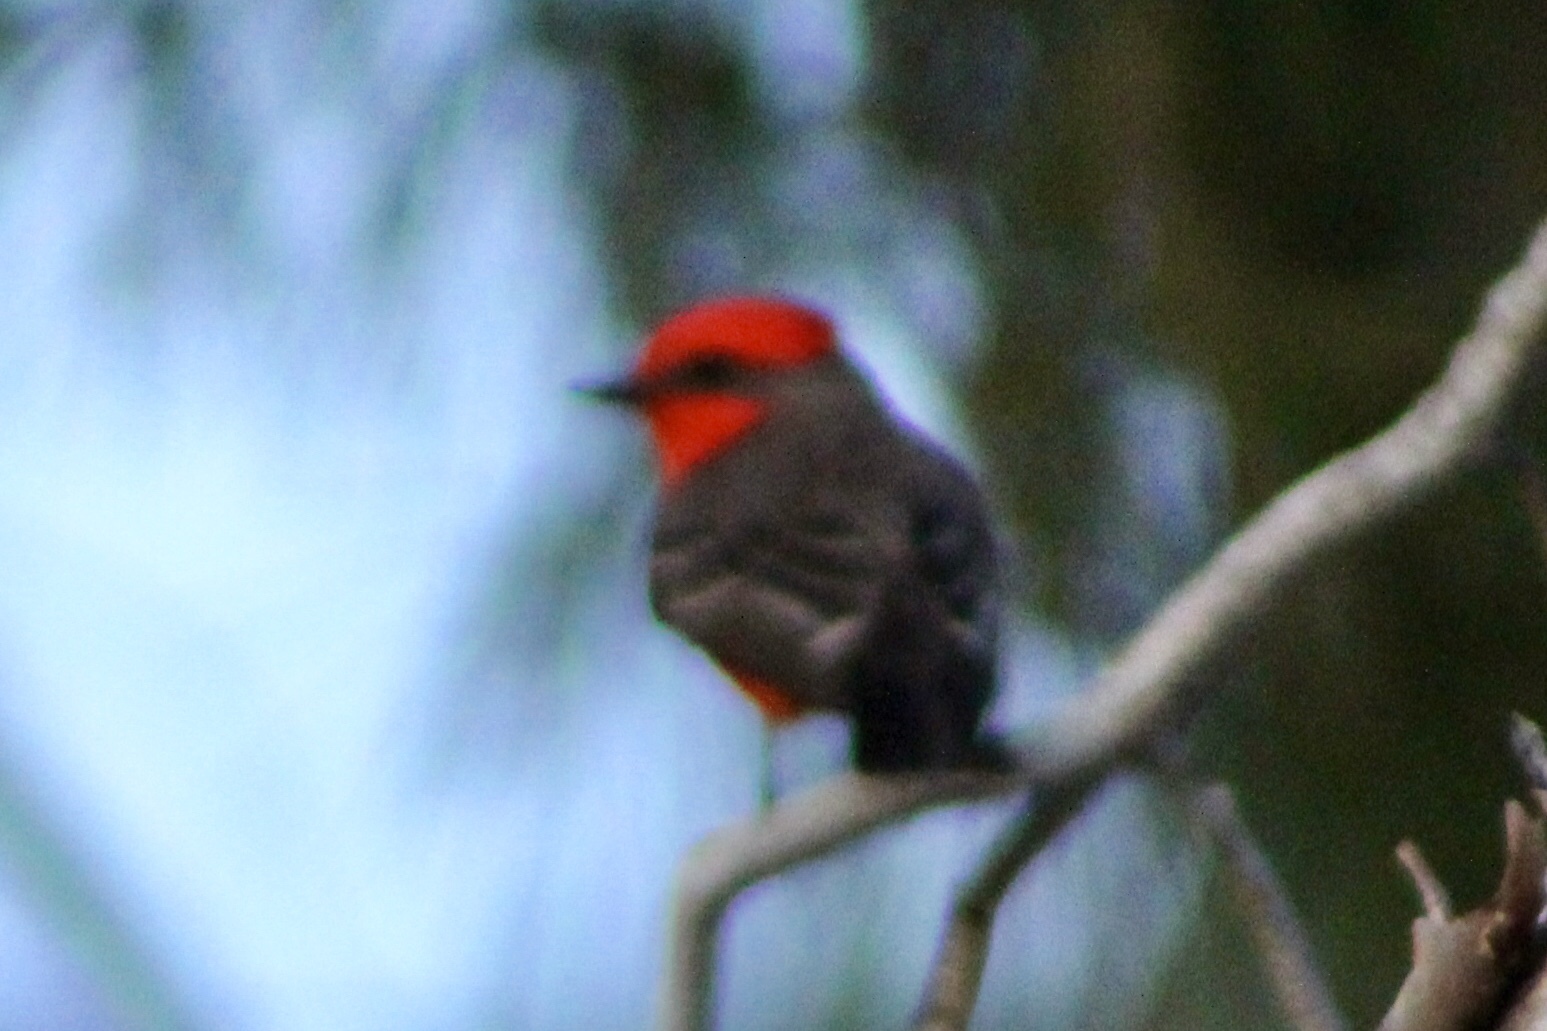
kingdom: Animalia
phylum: Chordata
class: Aves
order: Passeriformes
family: Tyrannidae
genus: Pyrocephalus
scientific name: Pyrocephalus rubinus
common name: Vermilion flycatcher
